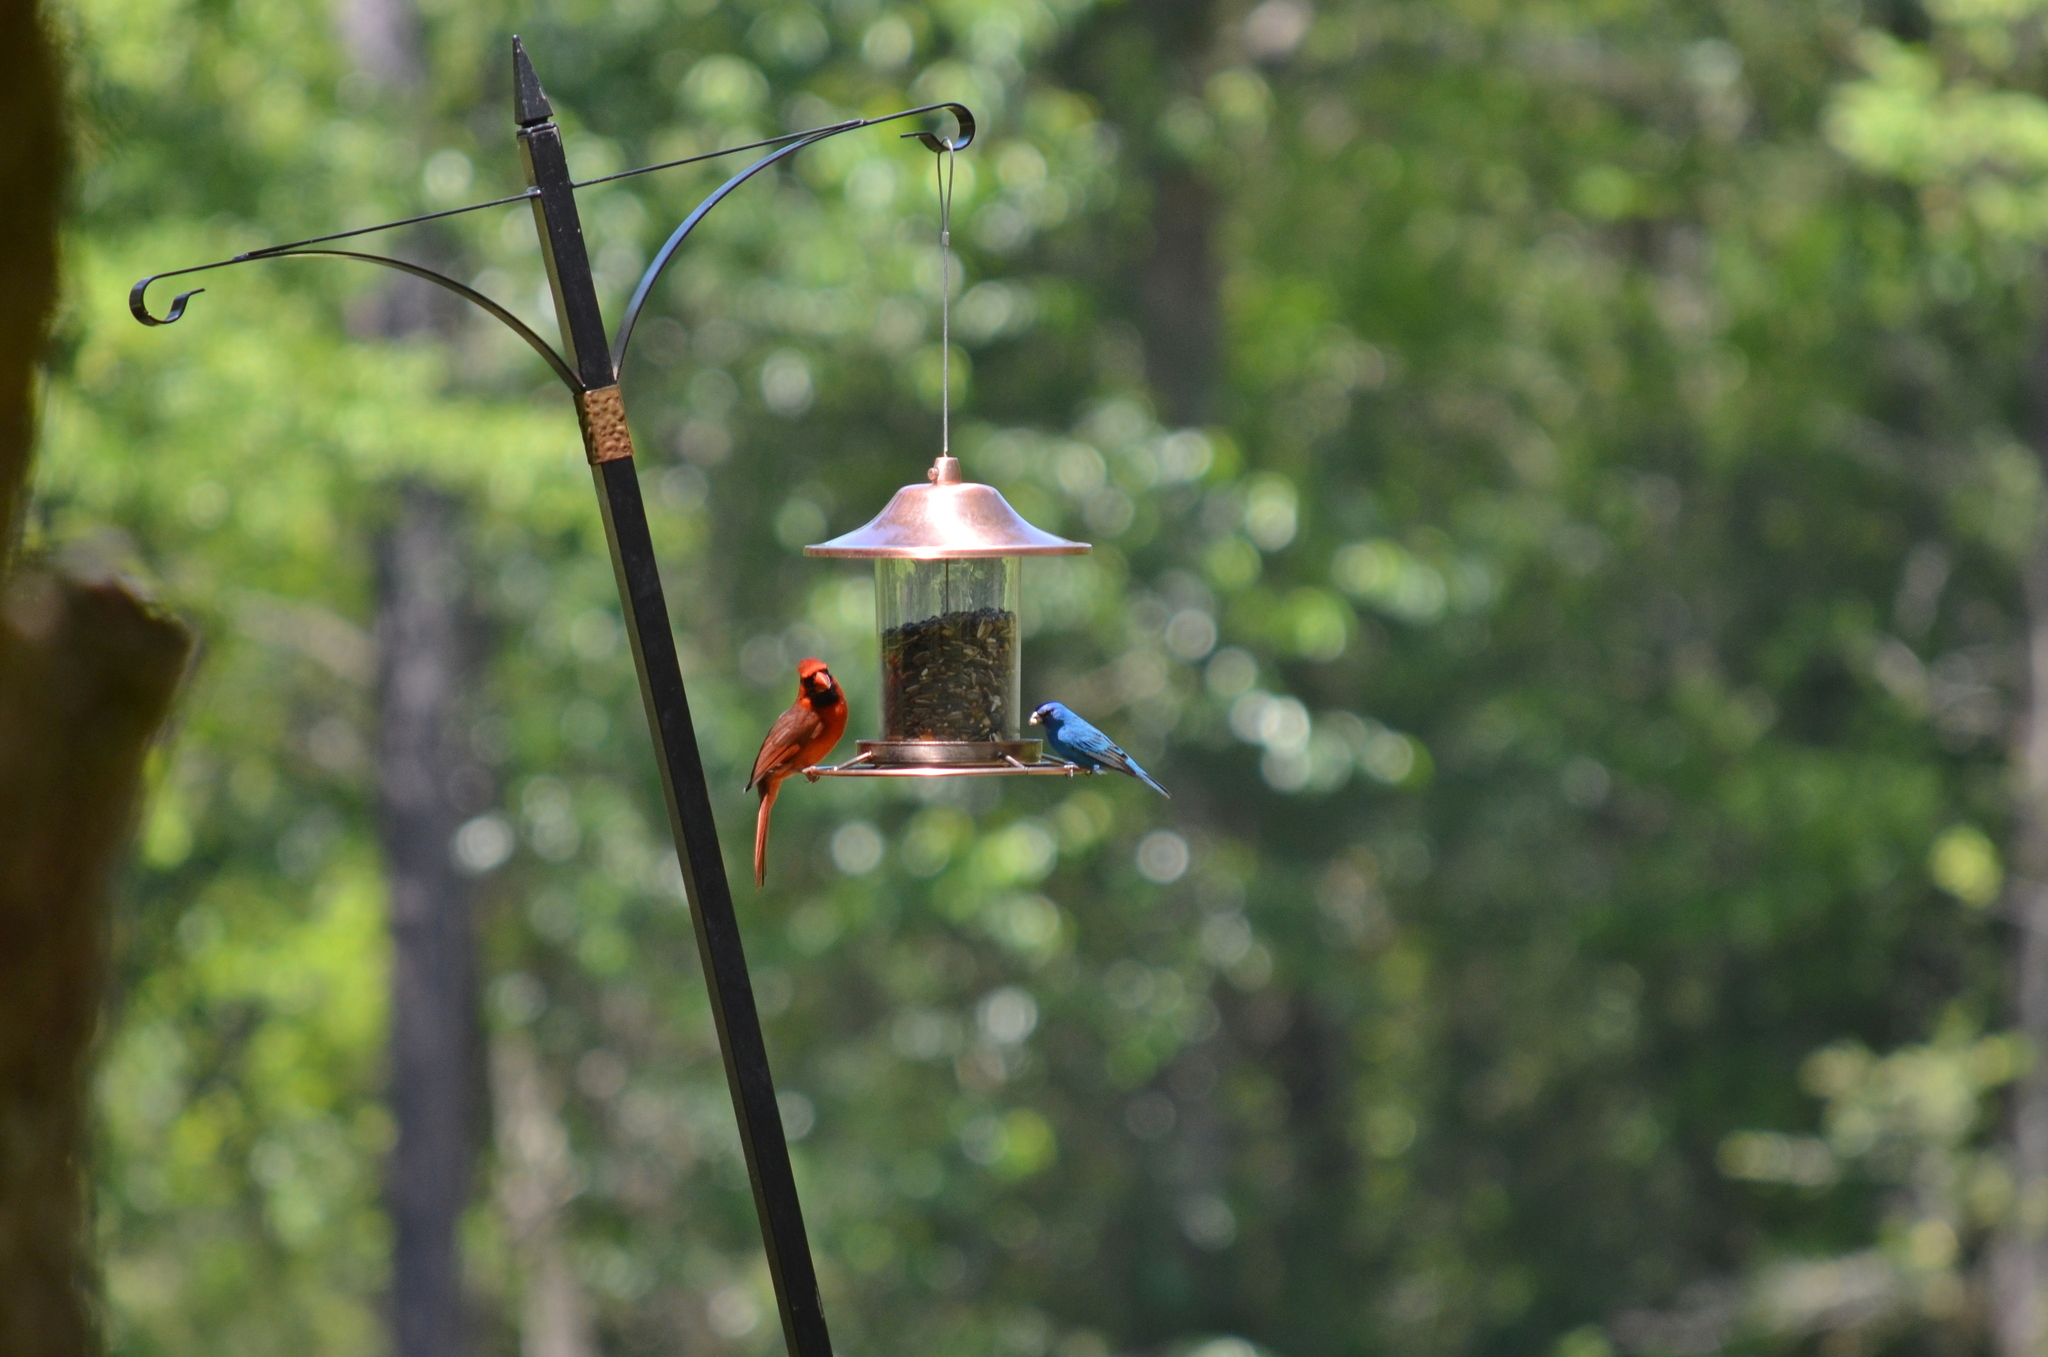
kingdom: Animalia
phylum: Chordata
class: Aves
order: Passeriformes
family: Cardinalidae
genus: Cardinalis
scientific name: Cardinalis cardinalis
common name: Northern cardinal
